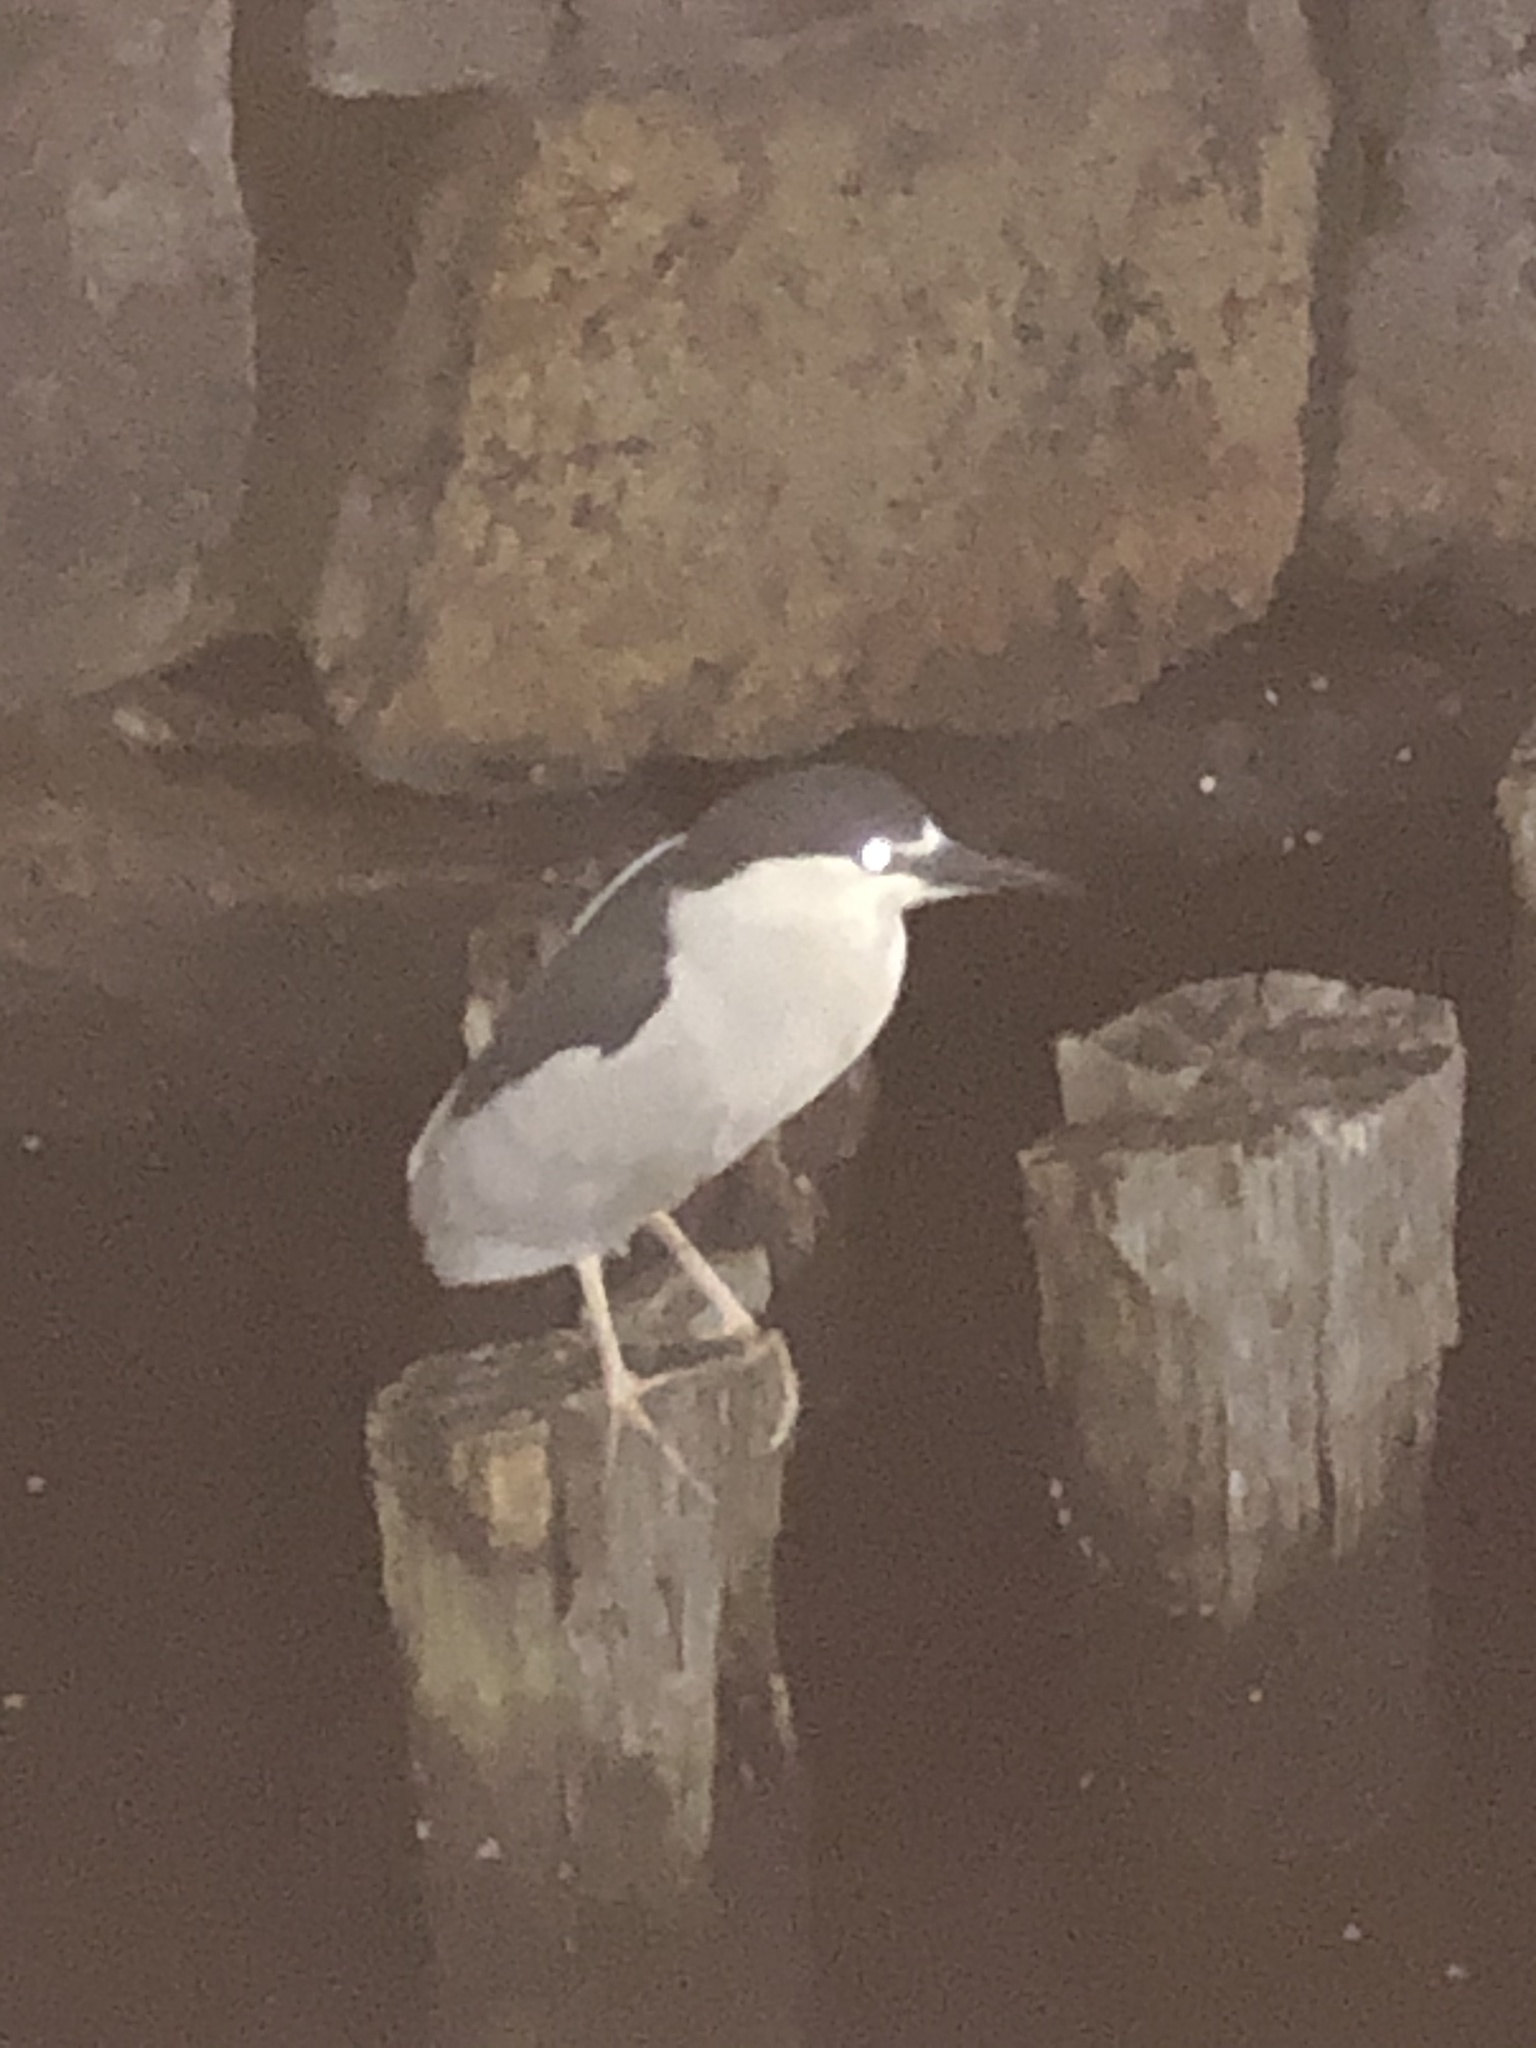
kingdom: Animalia
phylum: Chordata
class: Aves
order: Pelecaniformes
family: Ardeidae
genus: Nycticorax
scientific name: Nycticorax nycticorax
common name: Black-crowned night heron
